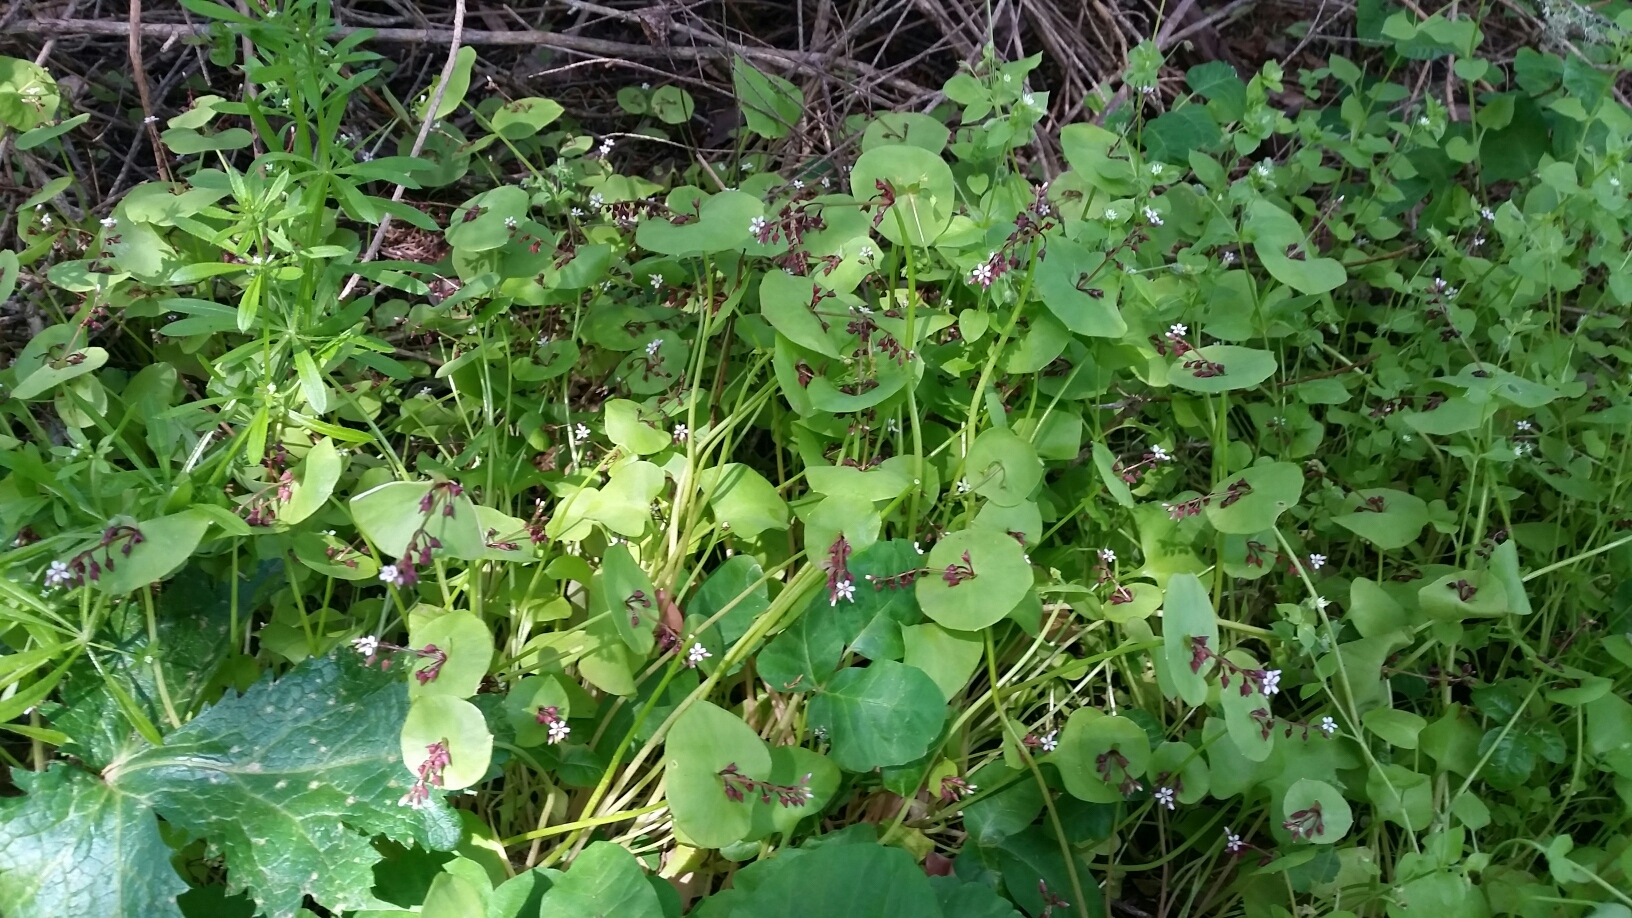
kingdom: Plantae
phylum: Tracheophyta
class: Magnoliopsida
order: Caryophyllales
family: Montiaceae
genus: Claytonia
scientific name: Claytonia perfoliata
